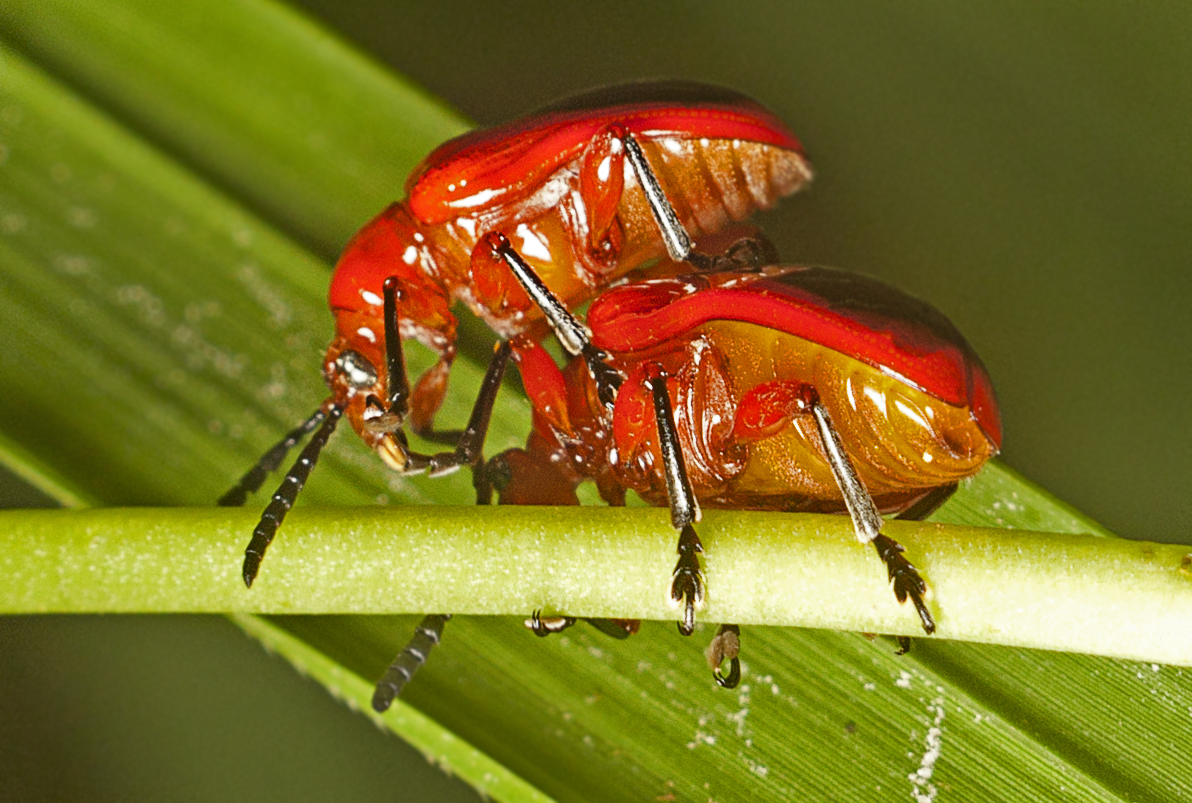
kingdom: Animalia
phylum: Arthropoda
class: Insecta
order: Coleoptera
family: Chrysomelidae
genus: Lilioceris
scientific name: Lilioceris
